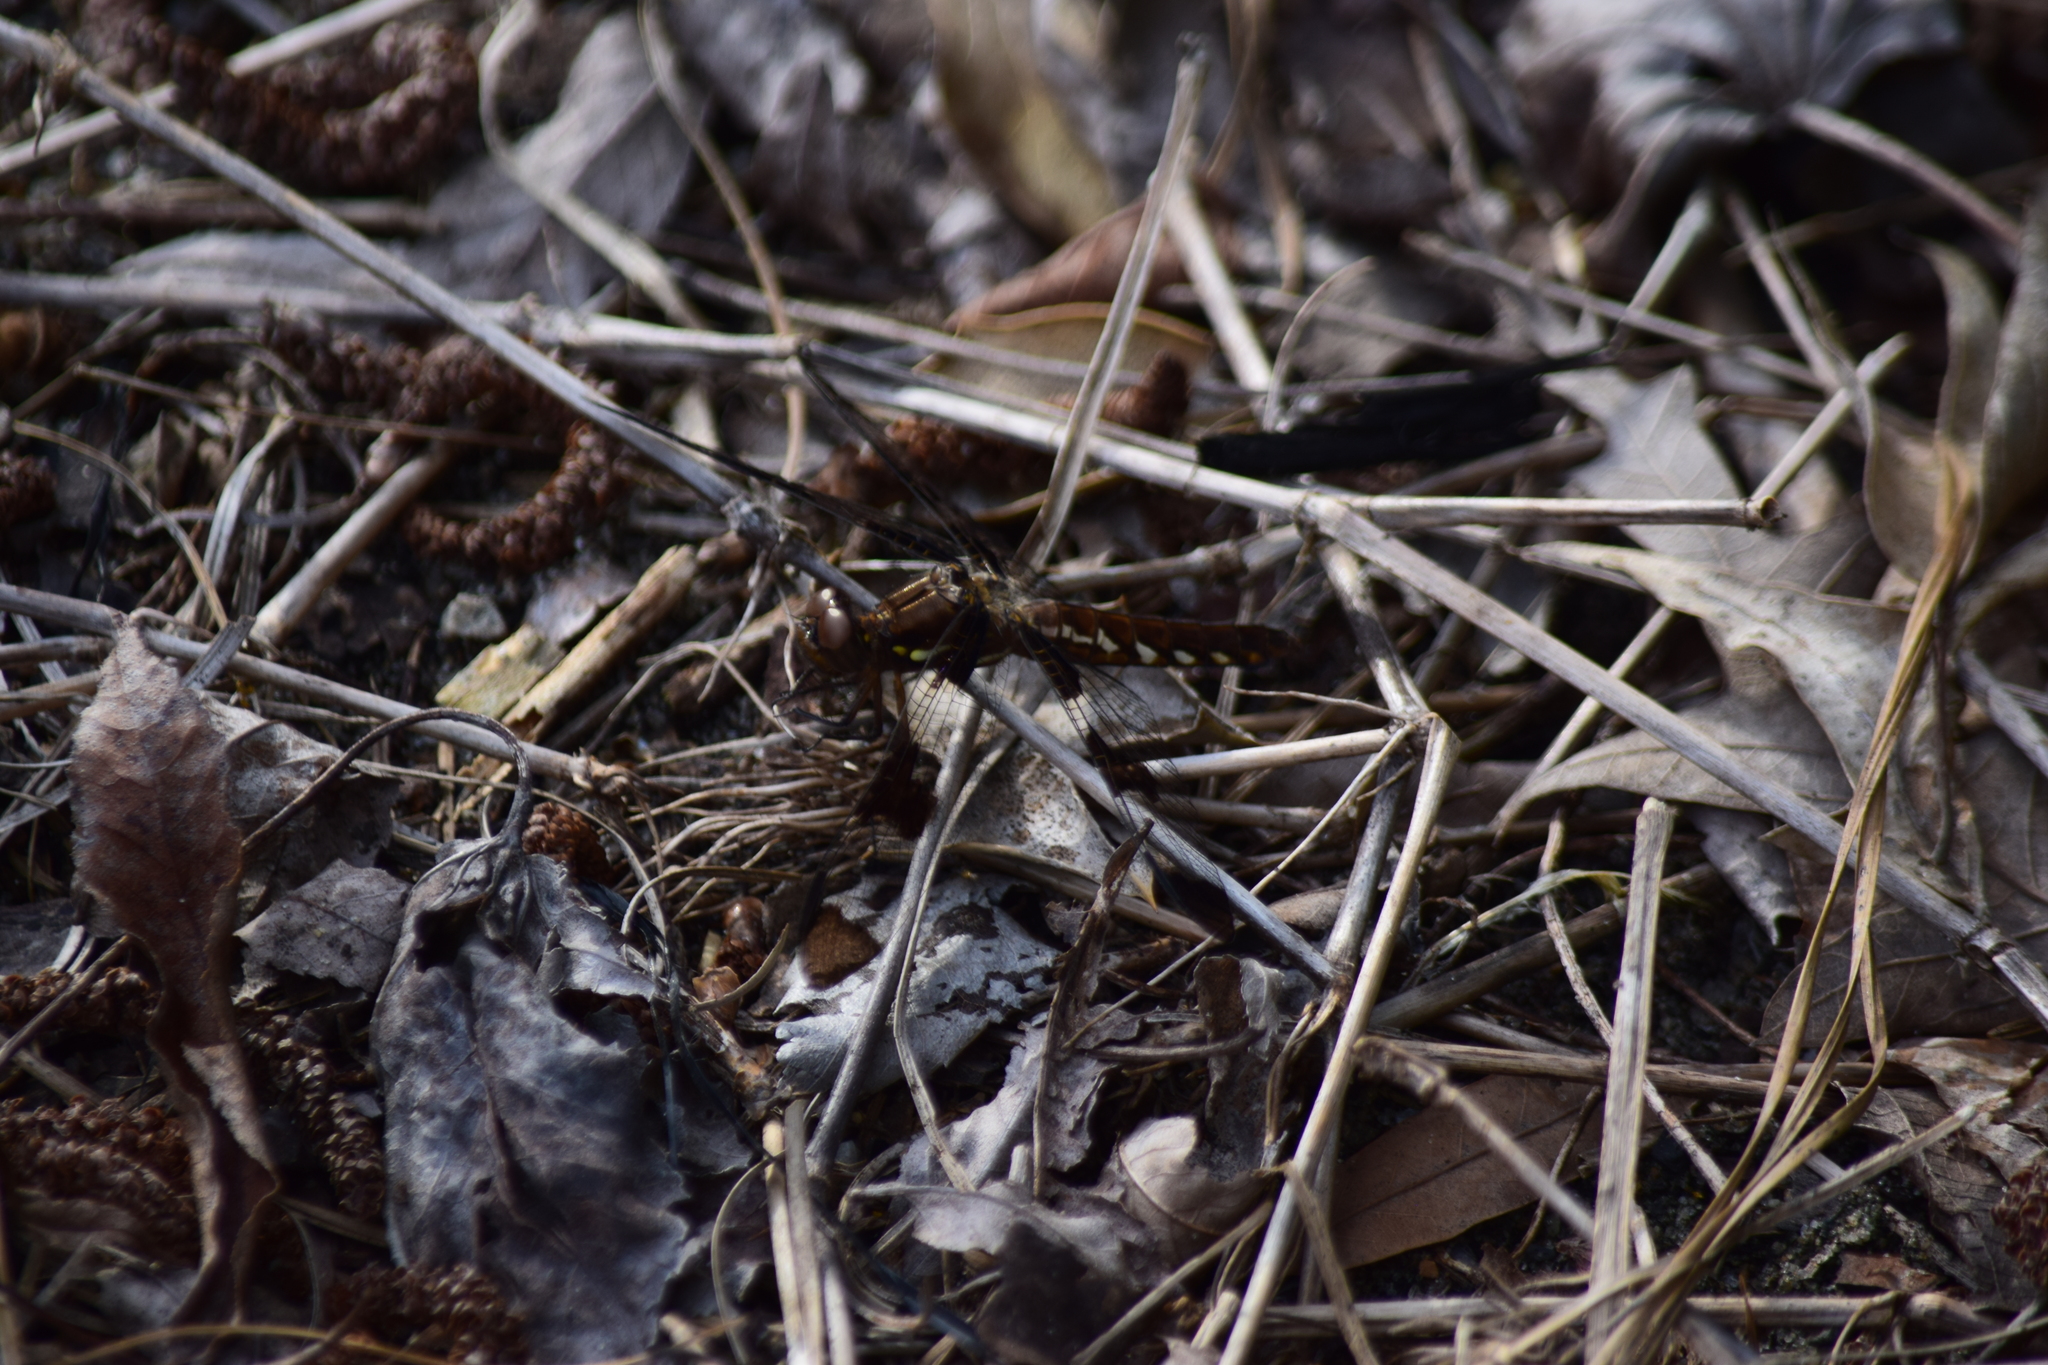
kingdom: Animalia
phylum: Arthropoda
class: Insecta
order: Odonata
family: Libellulidae
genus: Plathemis
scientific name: Plathemis lydia
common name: Common whitetail
